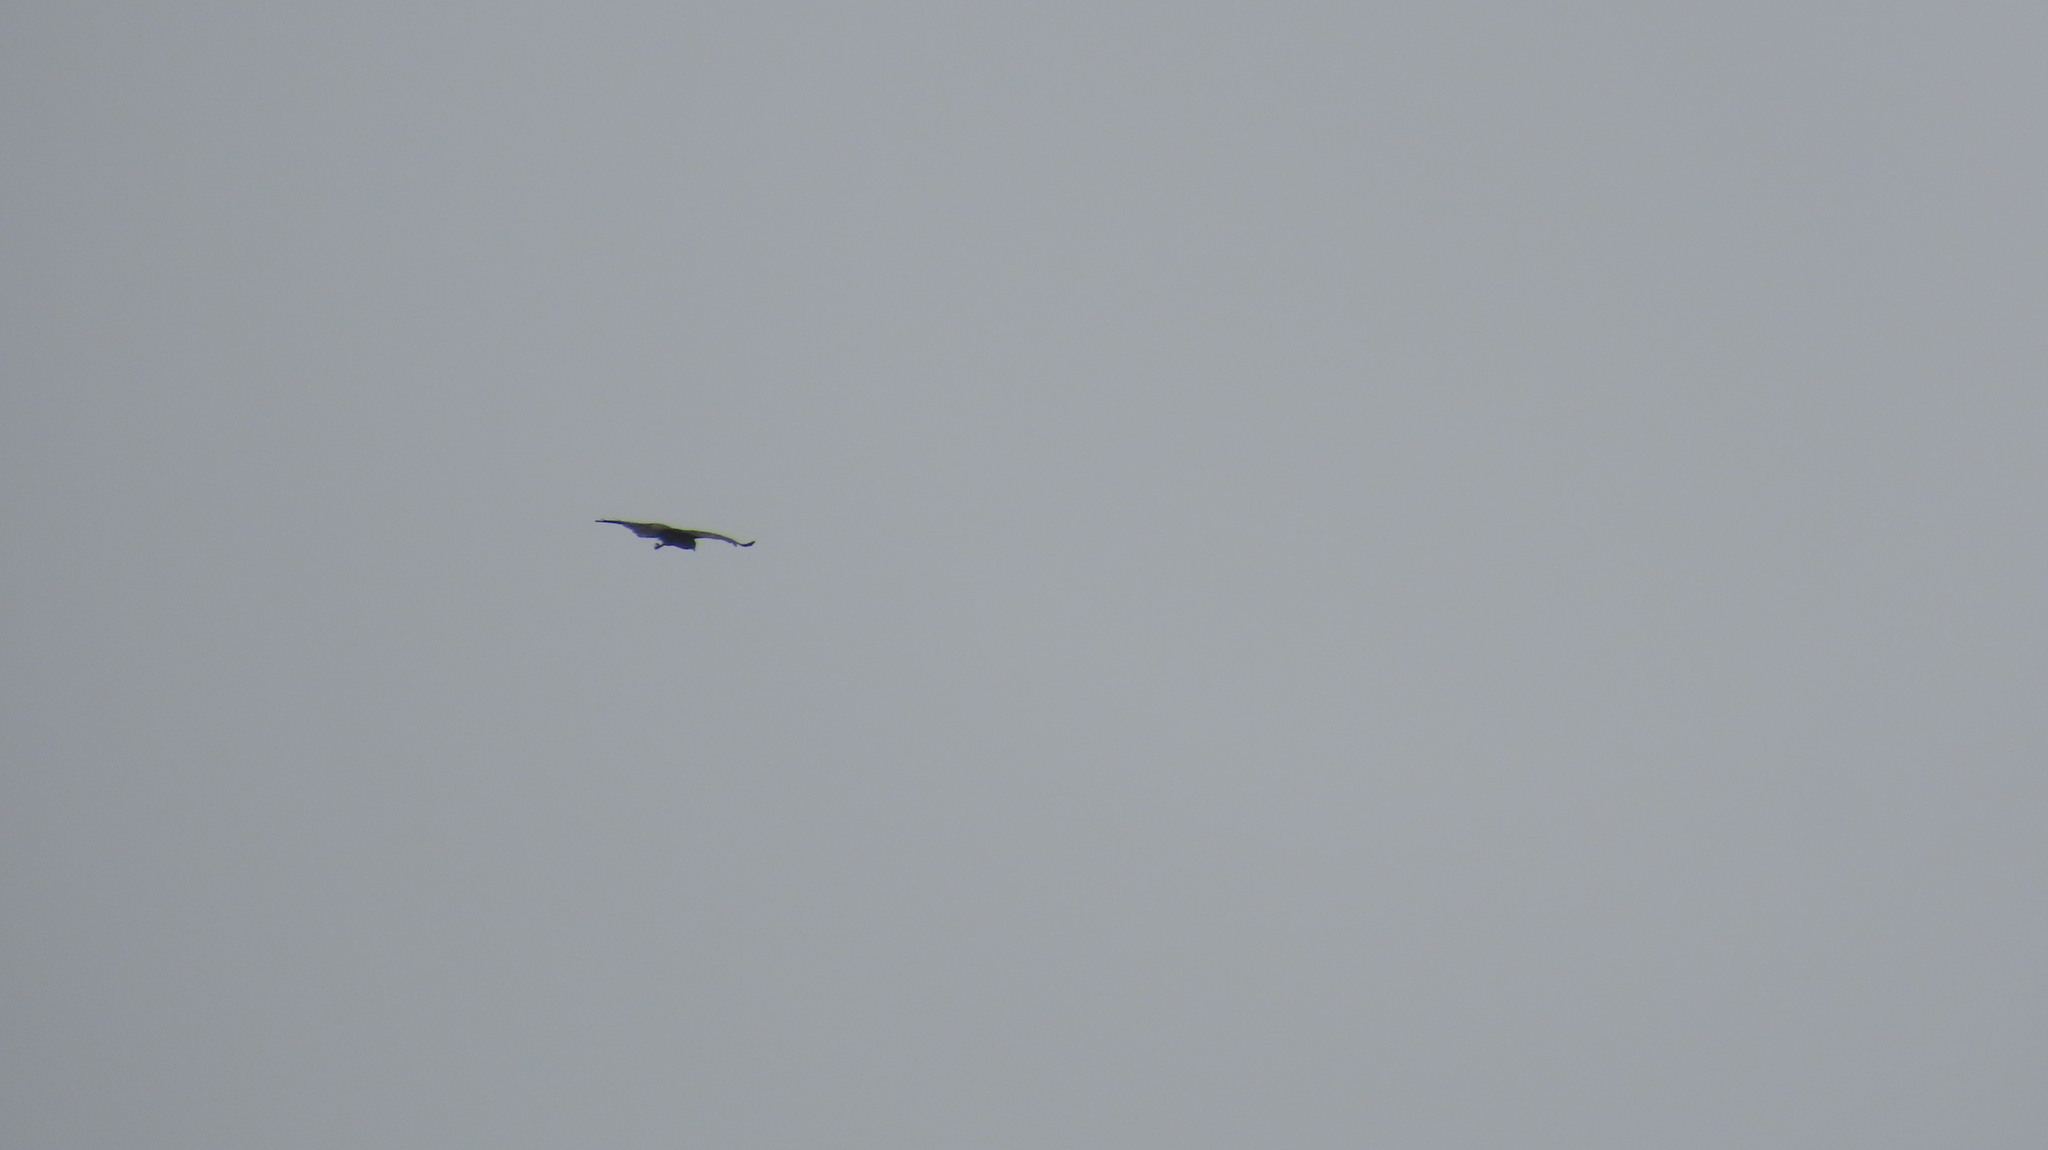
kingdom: Animalia
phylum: Chordata
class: Aves
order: Accipitriformes
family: Accipitridae
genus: Milvus
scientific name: Milvus migrans
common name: Black kite
